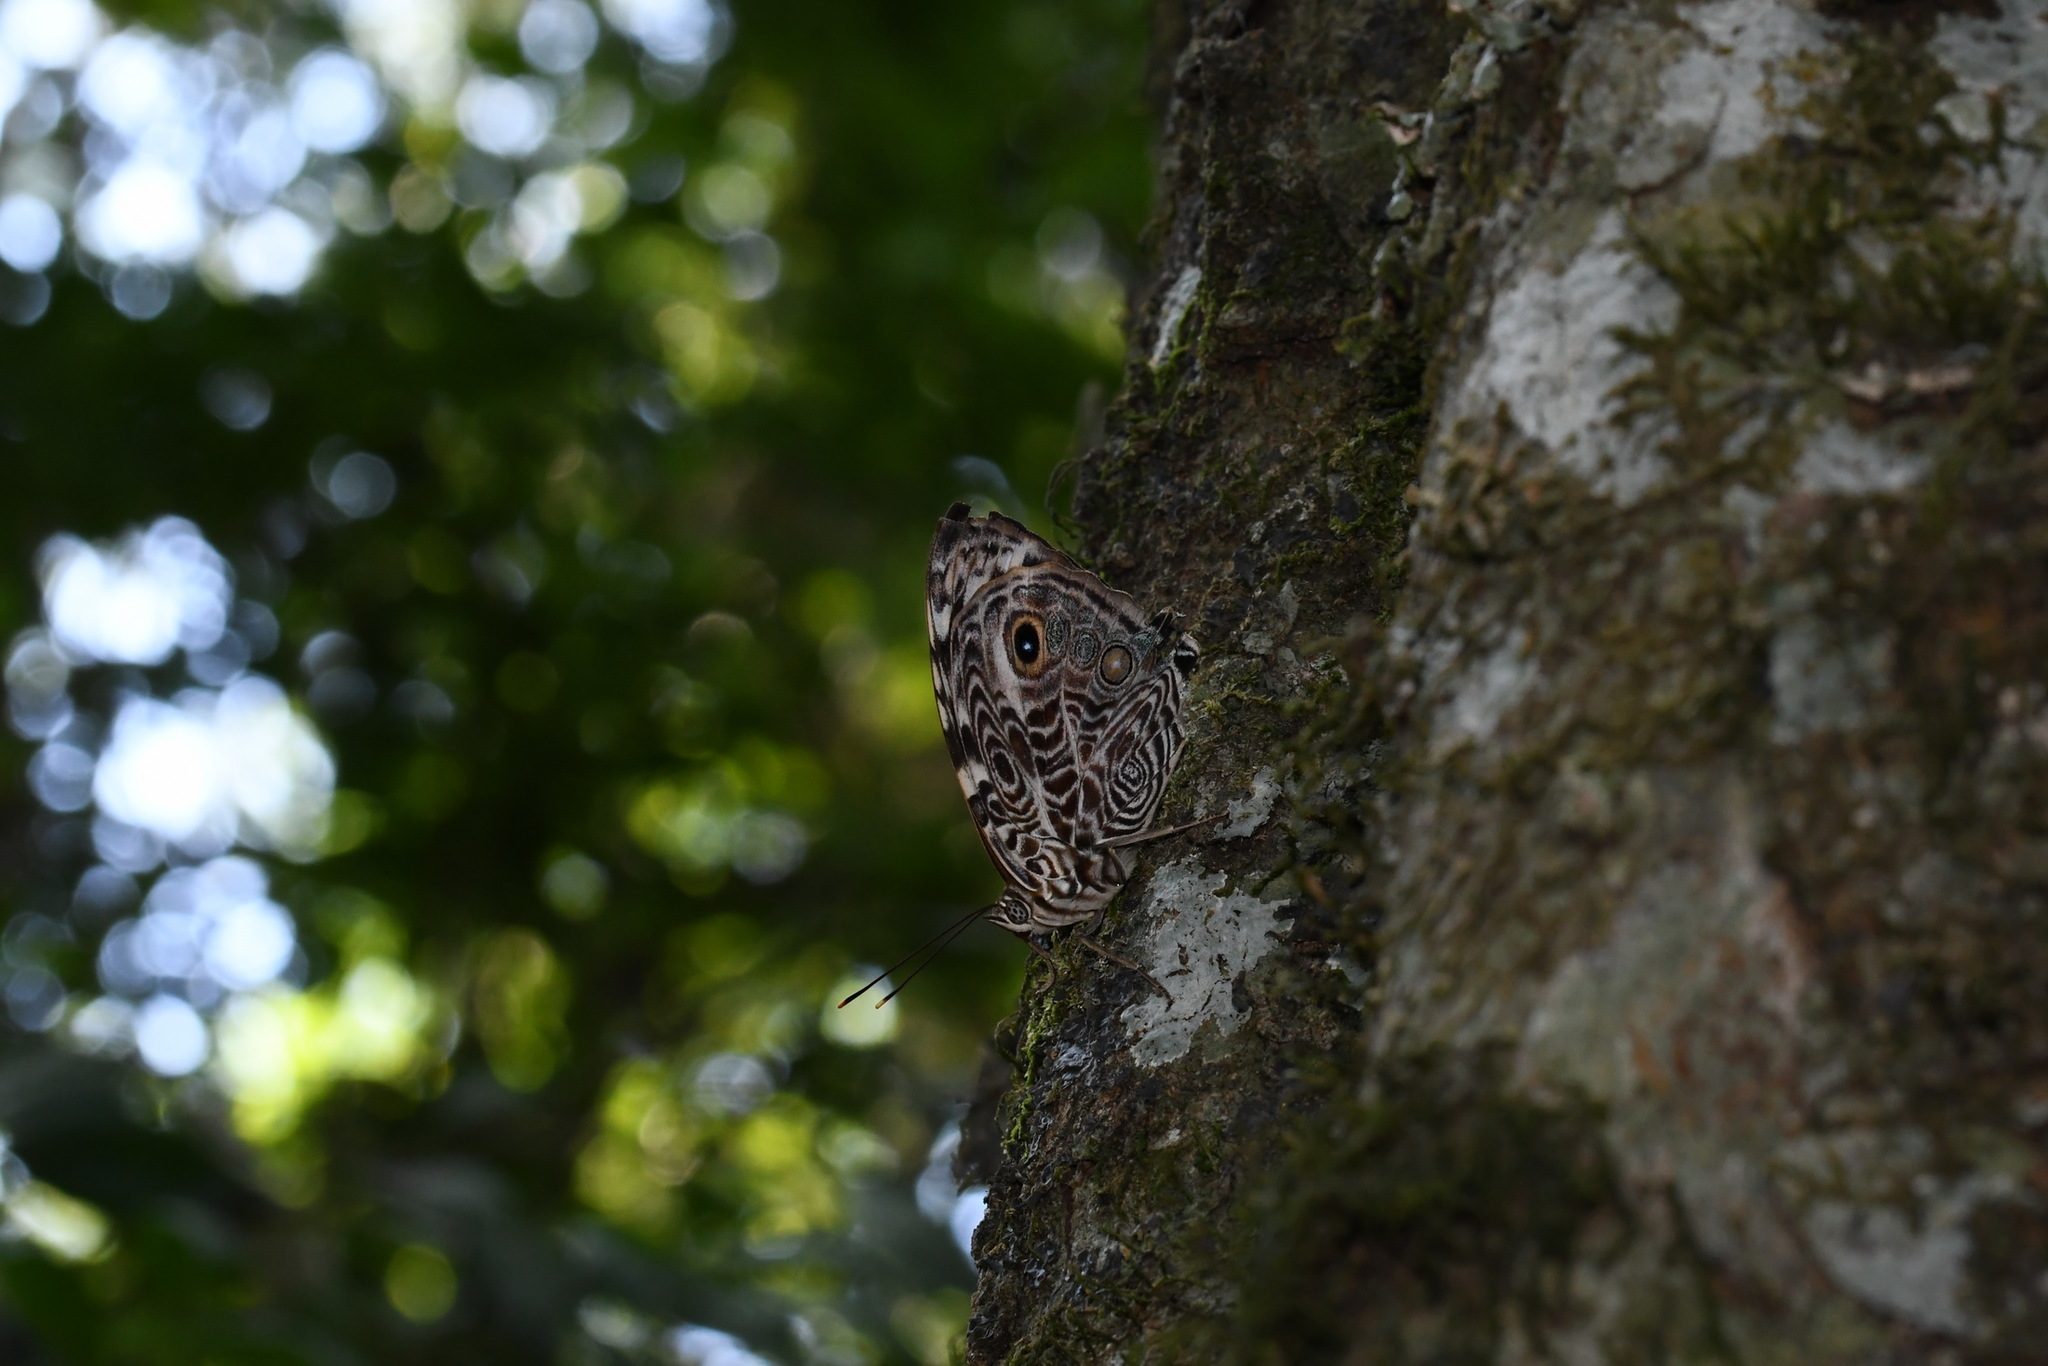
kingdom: Animalia
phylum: Arthropoda
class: Insecta
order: Lepidoptera
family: Nymphalidae
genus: Smyrna
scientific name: Smyrna blomfildia
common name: Blomfild's beauty
